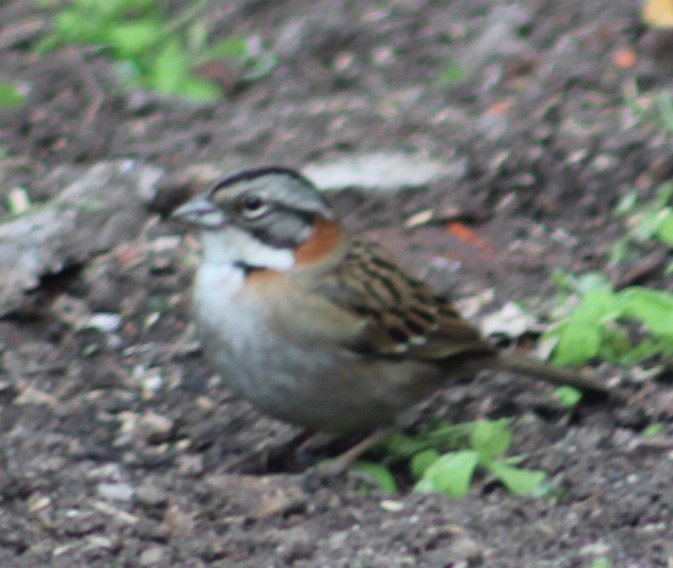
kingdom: Animalia
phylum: Chordata
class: Aves
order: Passeriformes
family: Passerellidae
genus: Zonotrichia
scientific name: Zonotrichia capensis
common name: Rufous-collared sparrow
